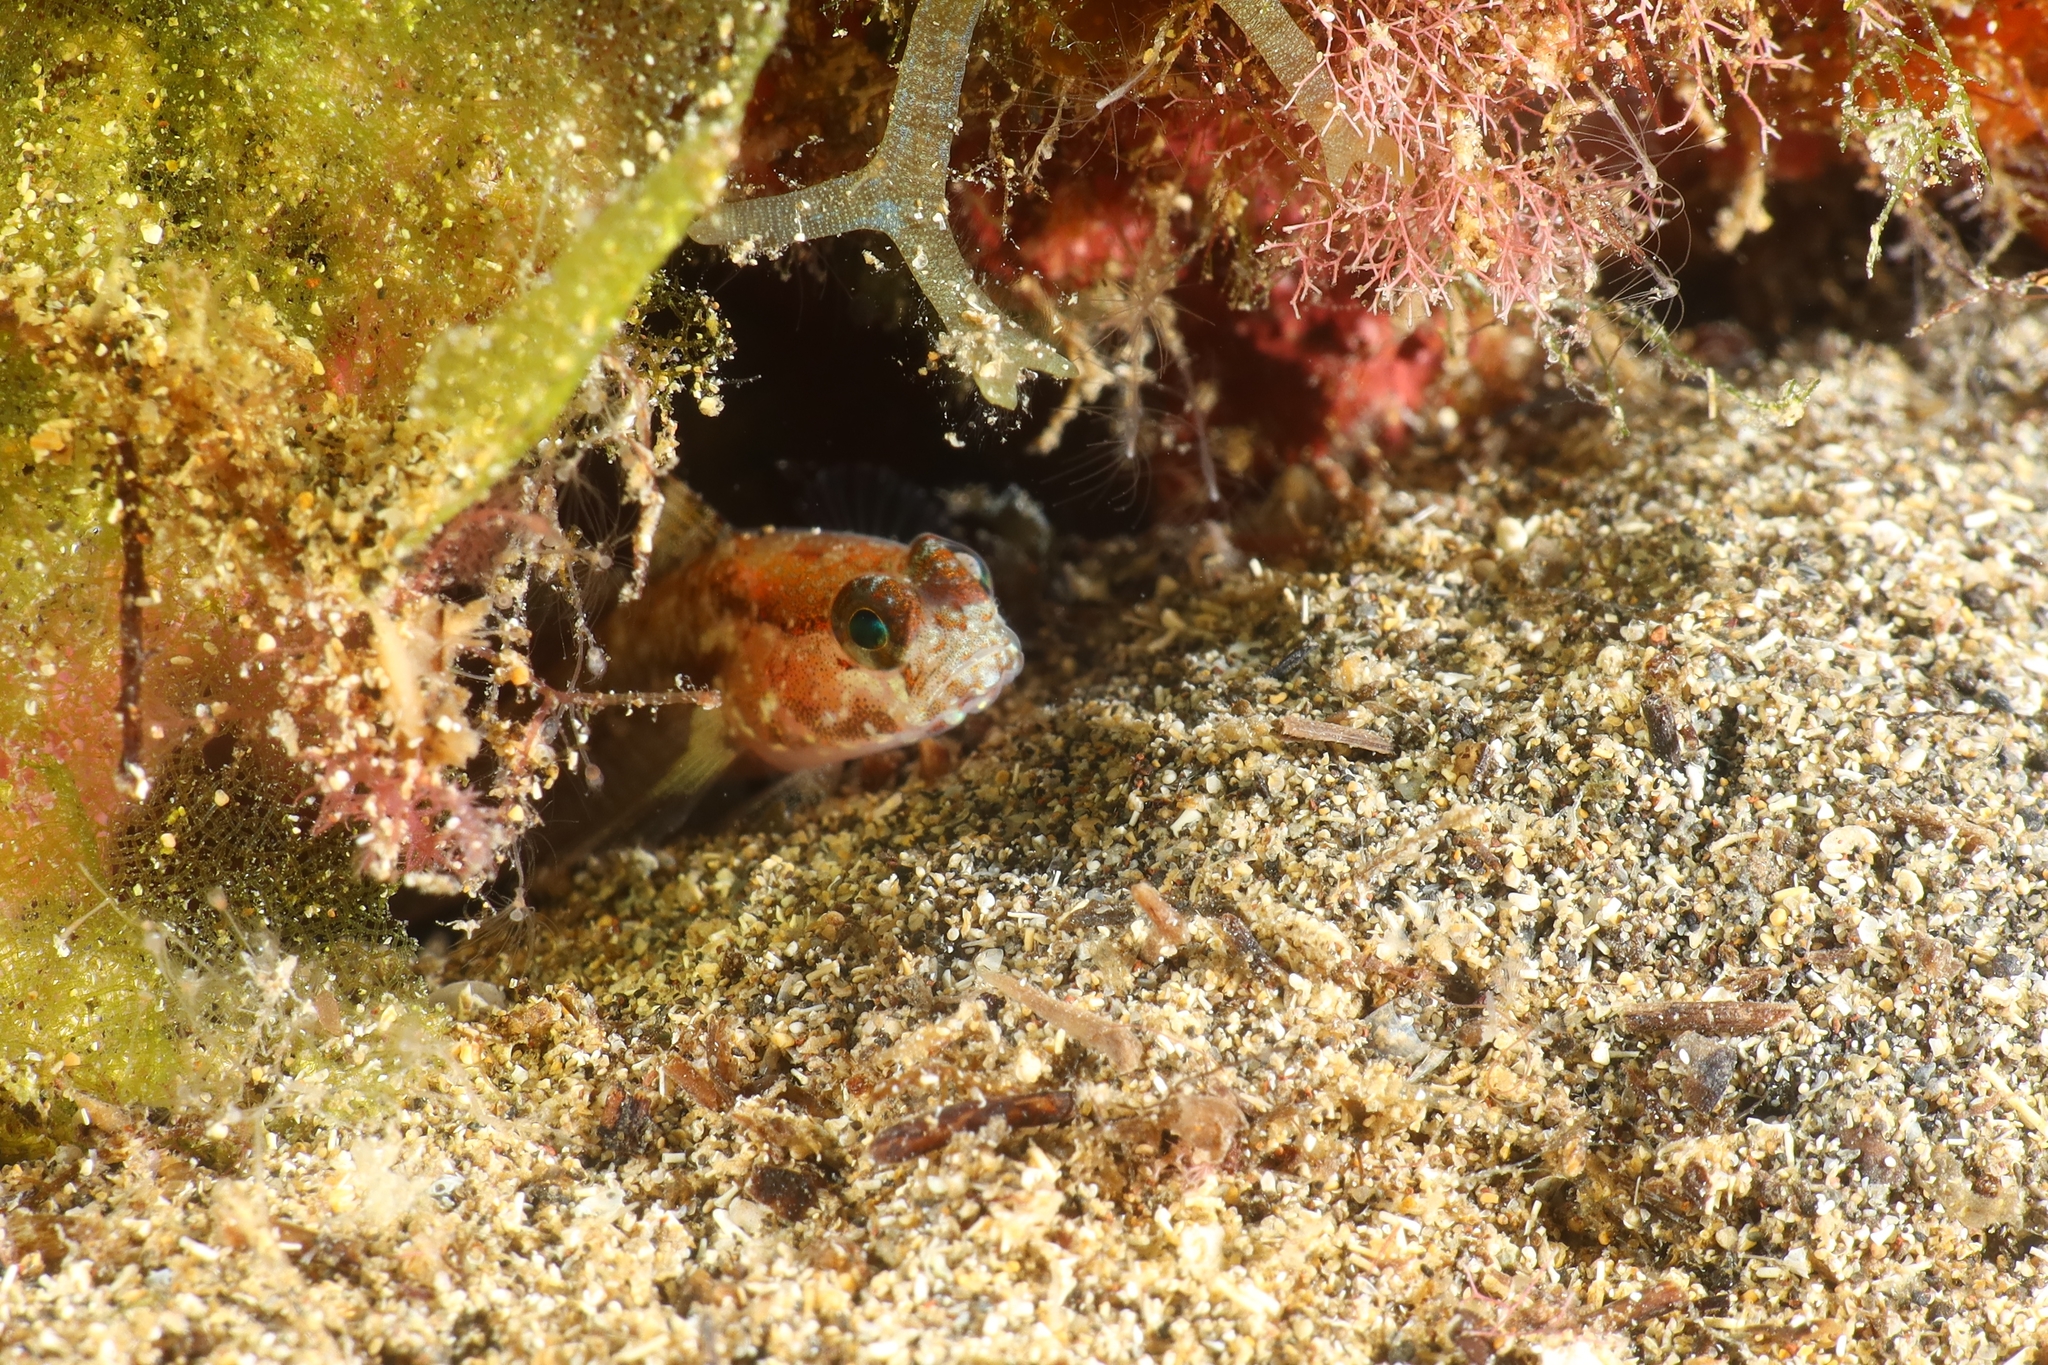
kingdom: Animalia
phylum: Chordata
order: Perciformes
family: Gobiidae
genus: Vanneaugobius
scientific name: Vanneaugobius canariensis
